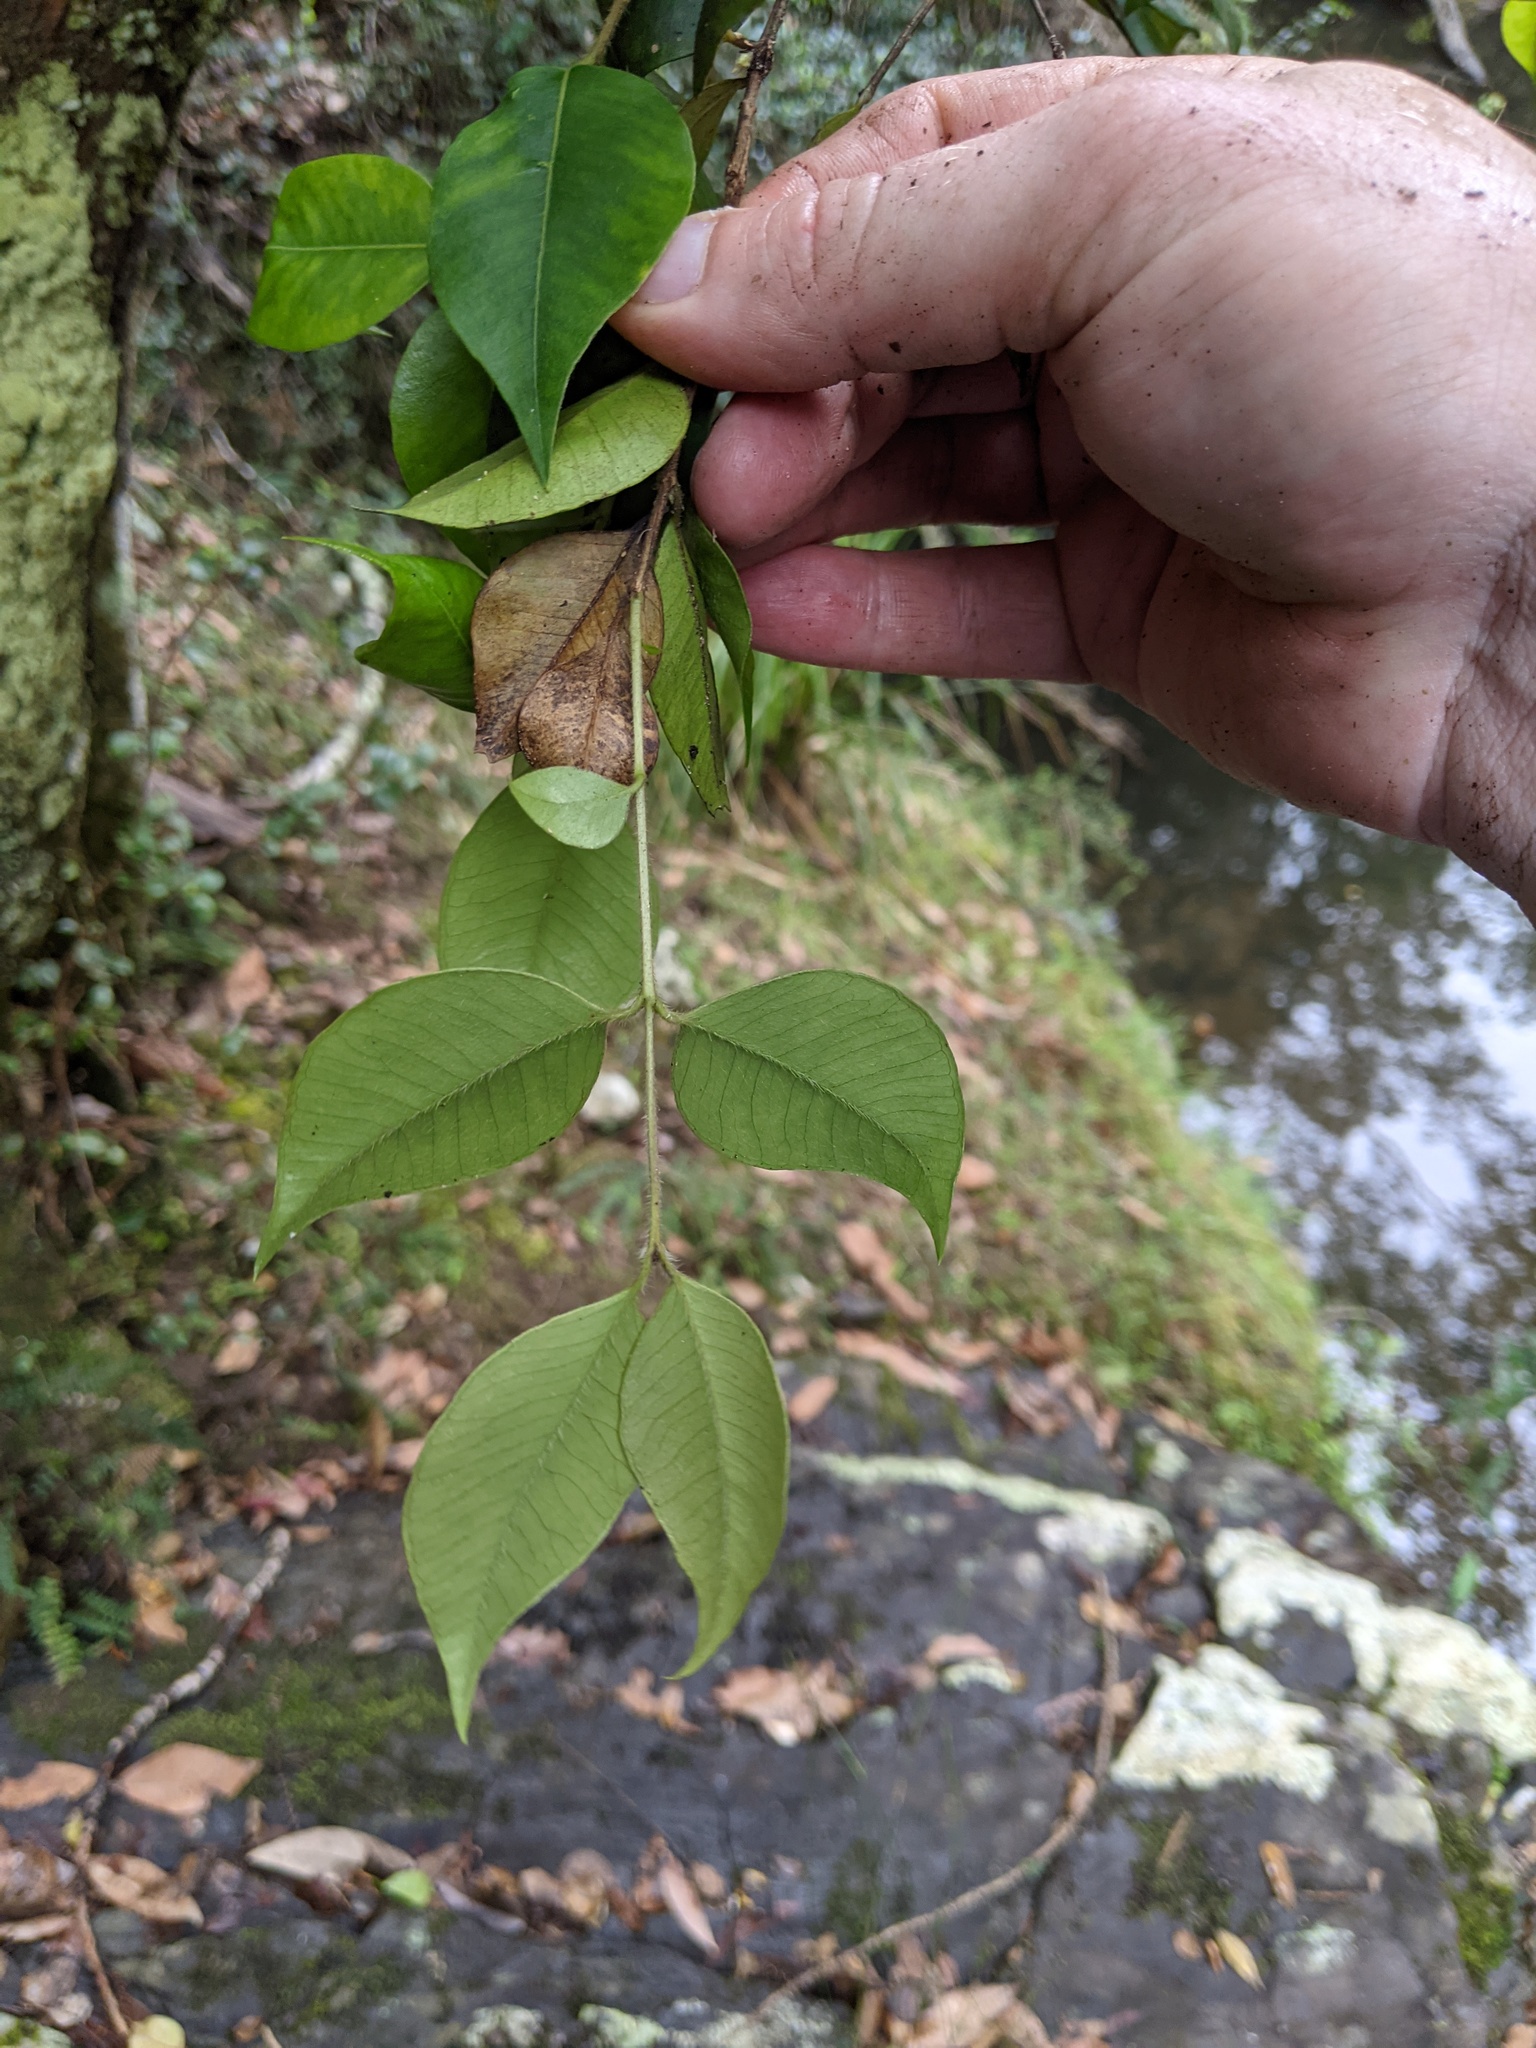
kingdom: Plantae
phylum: Tracheophyta
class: Magnoliopsida
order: Myrtales
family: Myrtaceae
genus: Backhousia
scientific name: Backhousia myrtifolia
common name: Carrol
